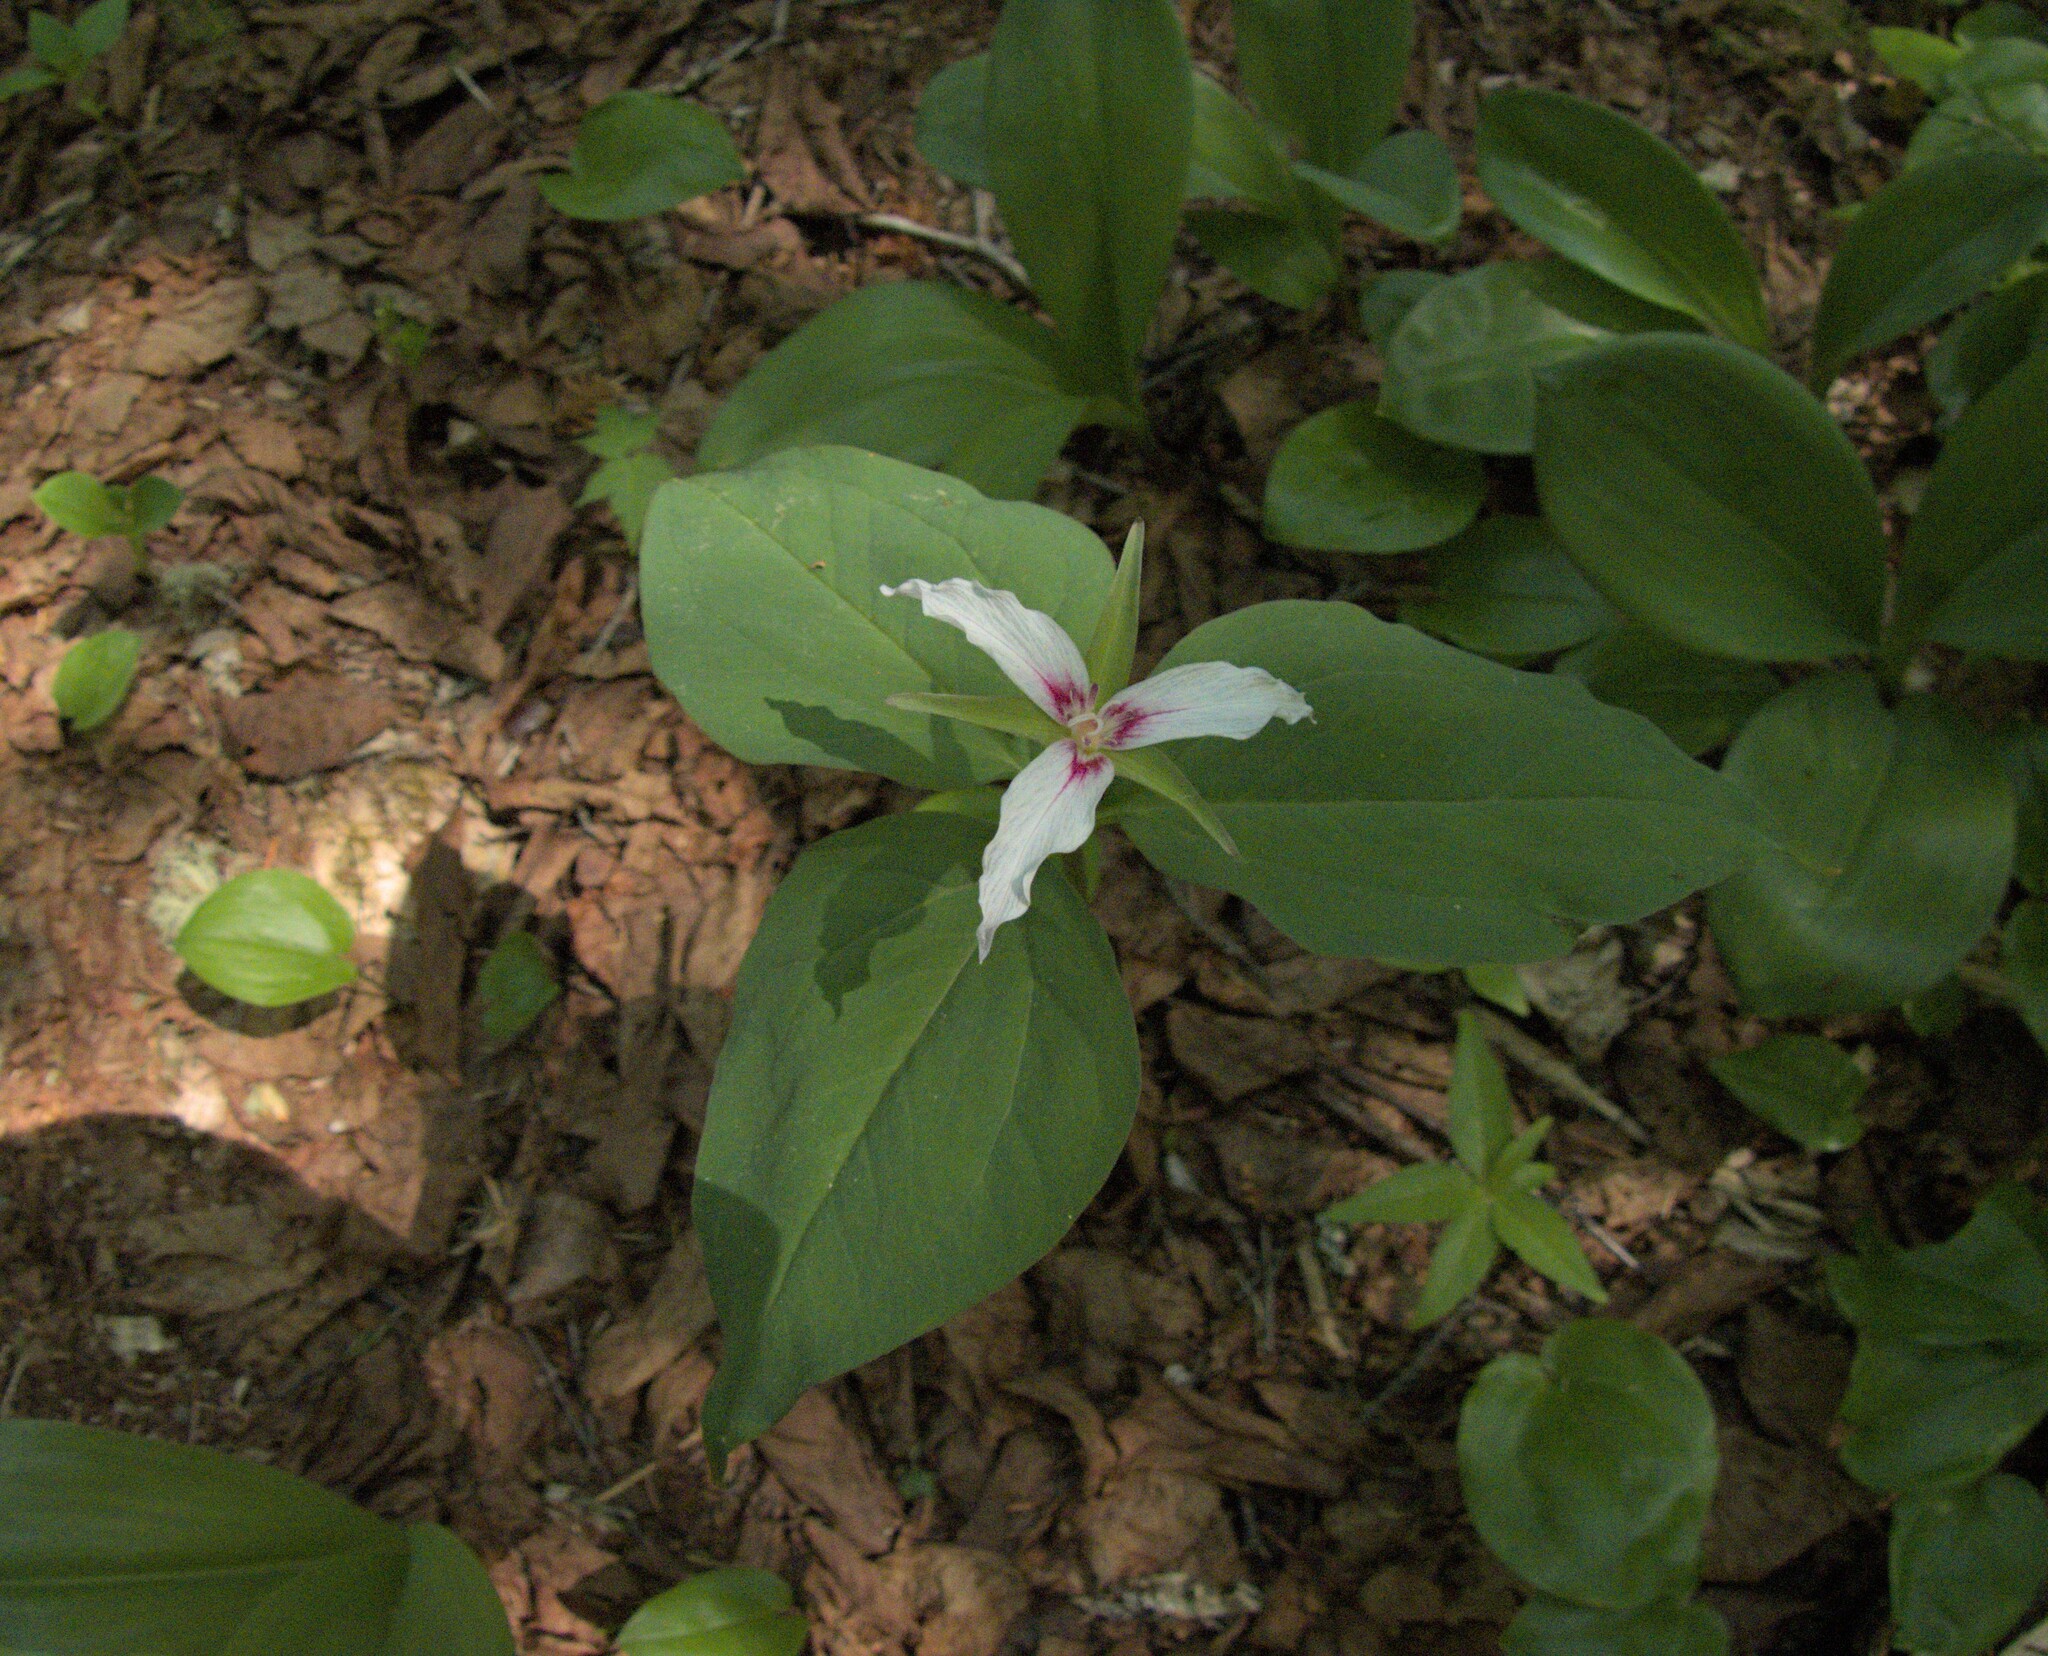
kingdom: Plantae
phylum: Tracheophyta
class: Liliopsida
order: Liliales
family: Melanthiaceae
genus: Trillium
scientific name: Trillium undulatum
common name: Paint trillium
